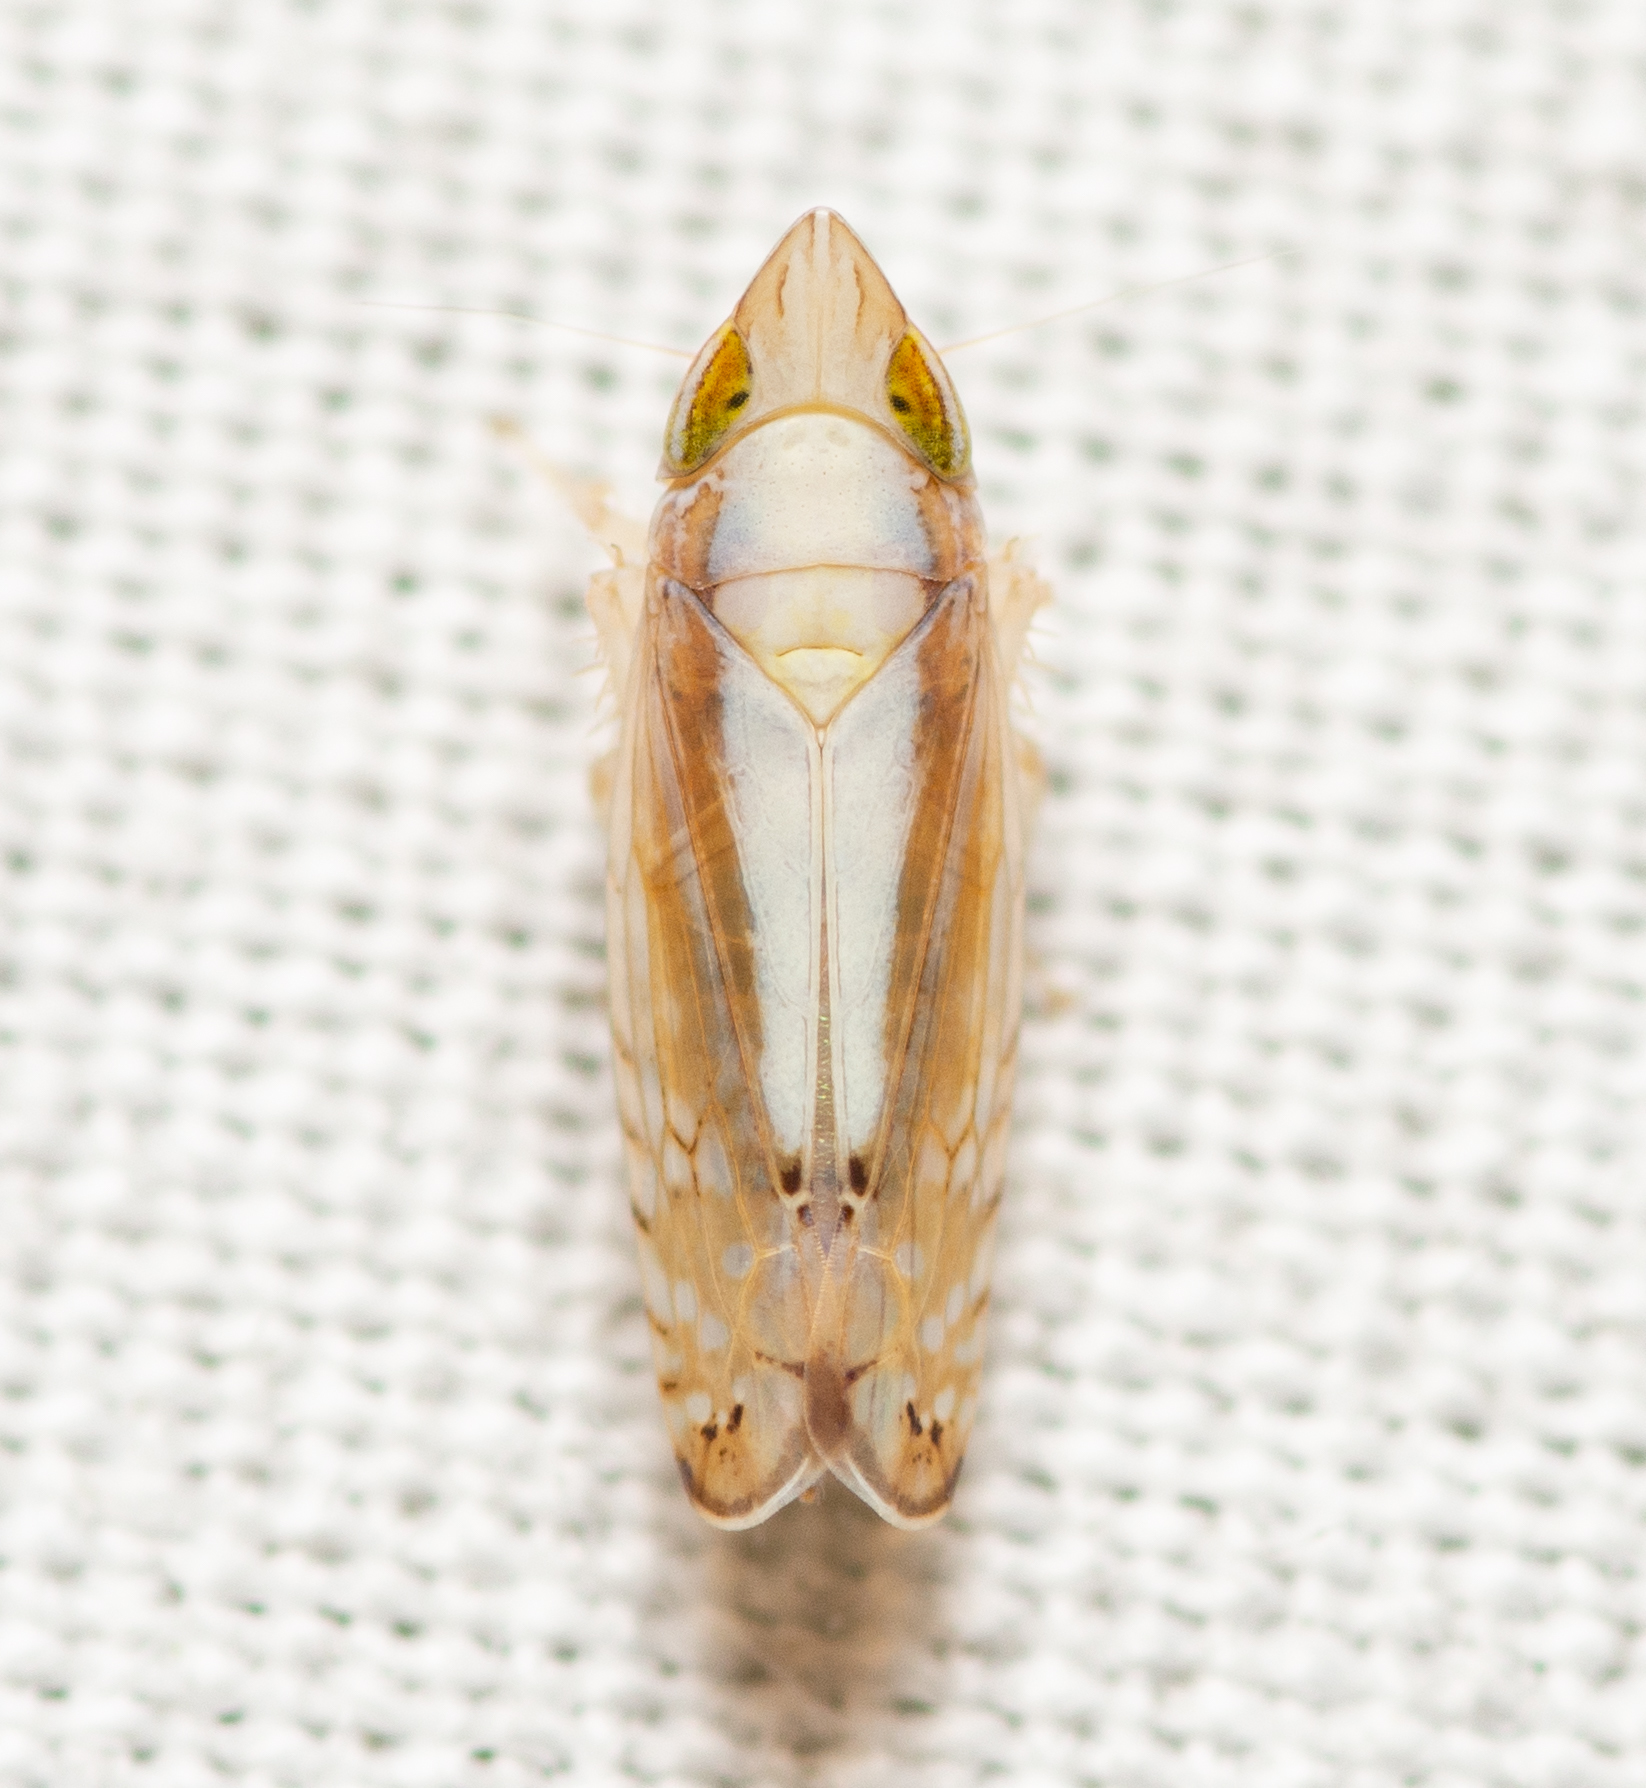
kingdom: Animalia
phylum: Arthropoda
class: Insecta
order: Hemiptera
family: Cicadellidae
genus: Scaphytopius
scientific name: Scaphytopius elegans
